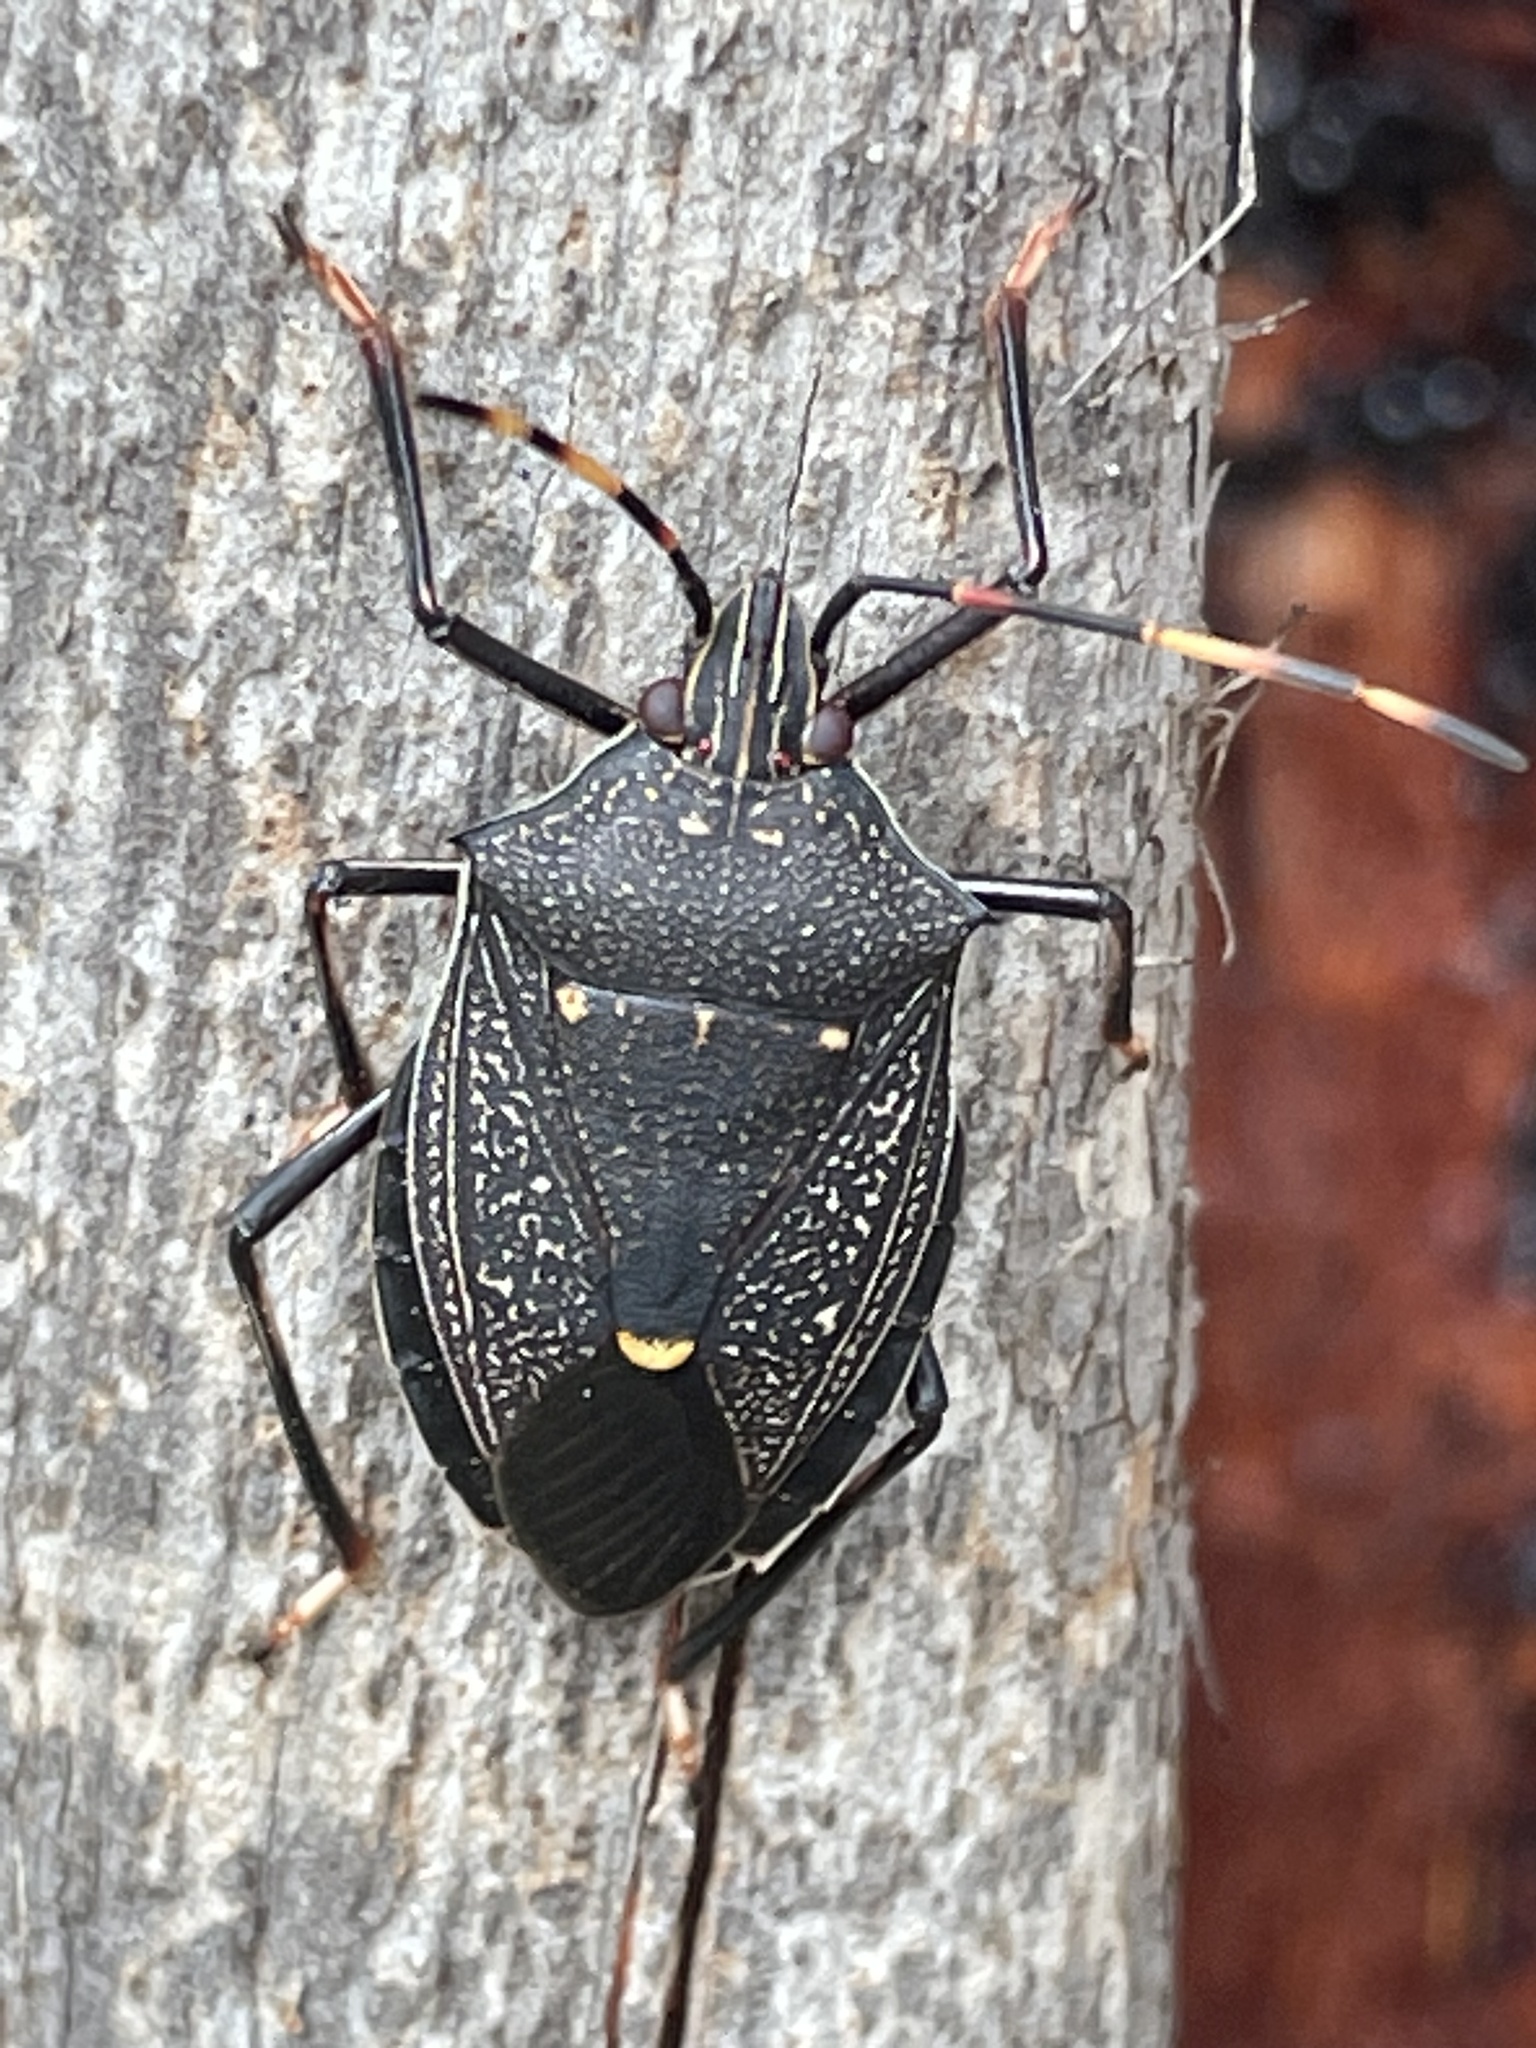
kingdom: Animalia
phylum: Arthropoda
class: Insecta
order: Hemiptera
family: Pentatomidae
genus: Poecilometis
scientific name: Poecilometis
